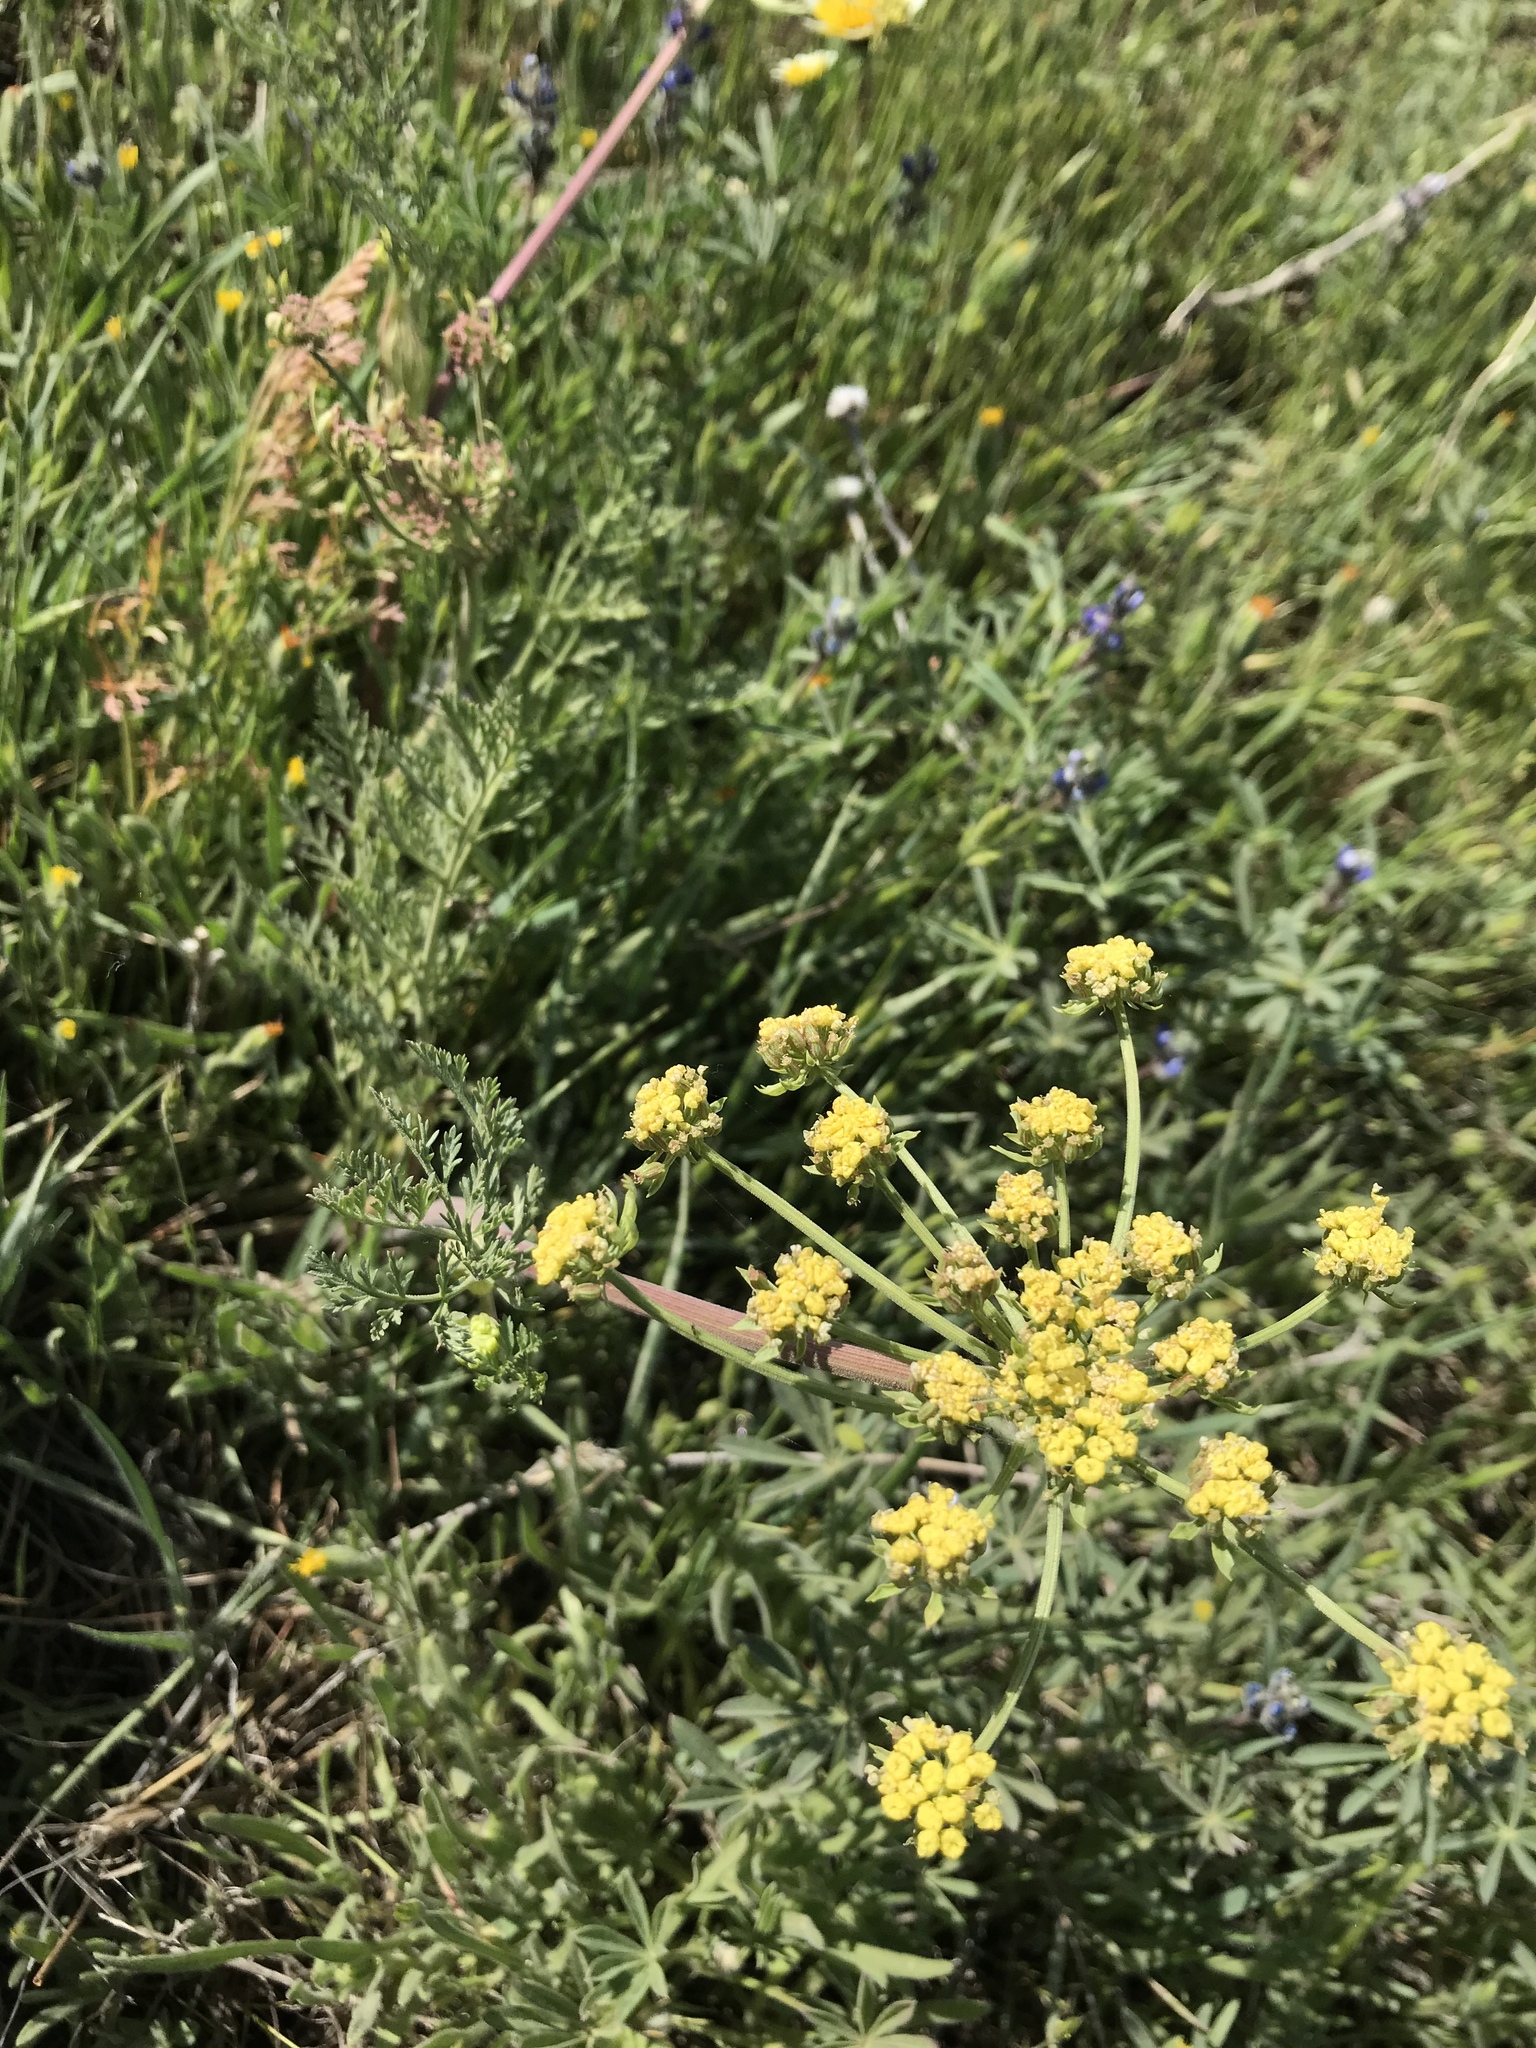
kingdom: Plantae
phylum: Tracheophyta
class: Magnoliopsida
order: Apiales
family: Apiaceae
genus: Lomatium
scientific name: Lomatium utriculatum
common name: Fine-leaf desert-parsley
